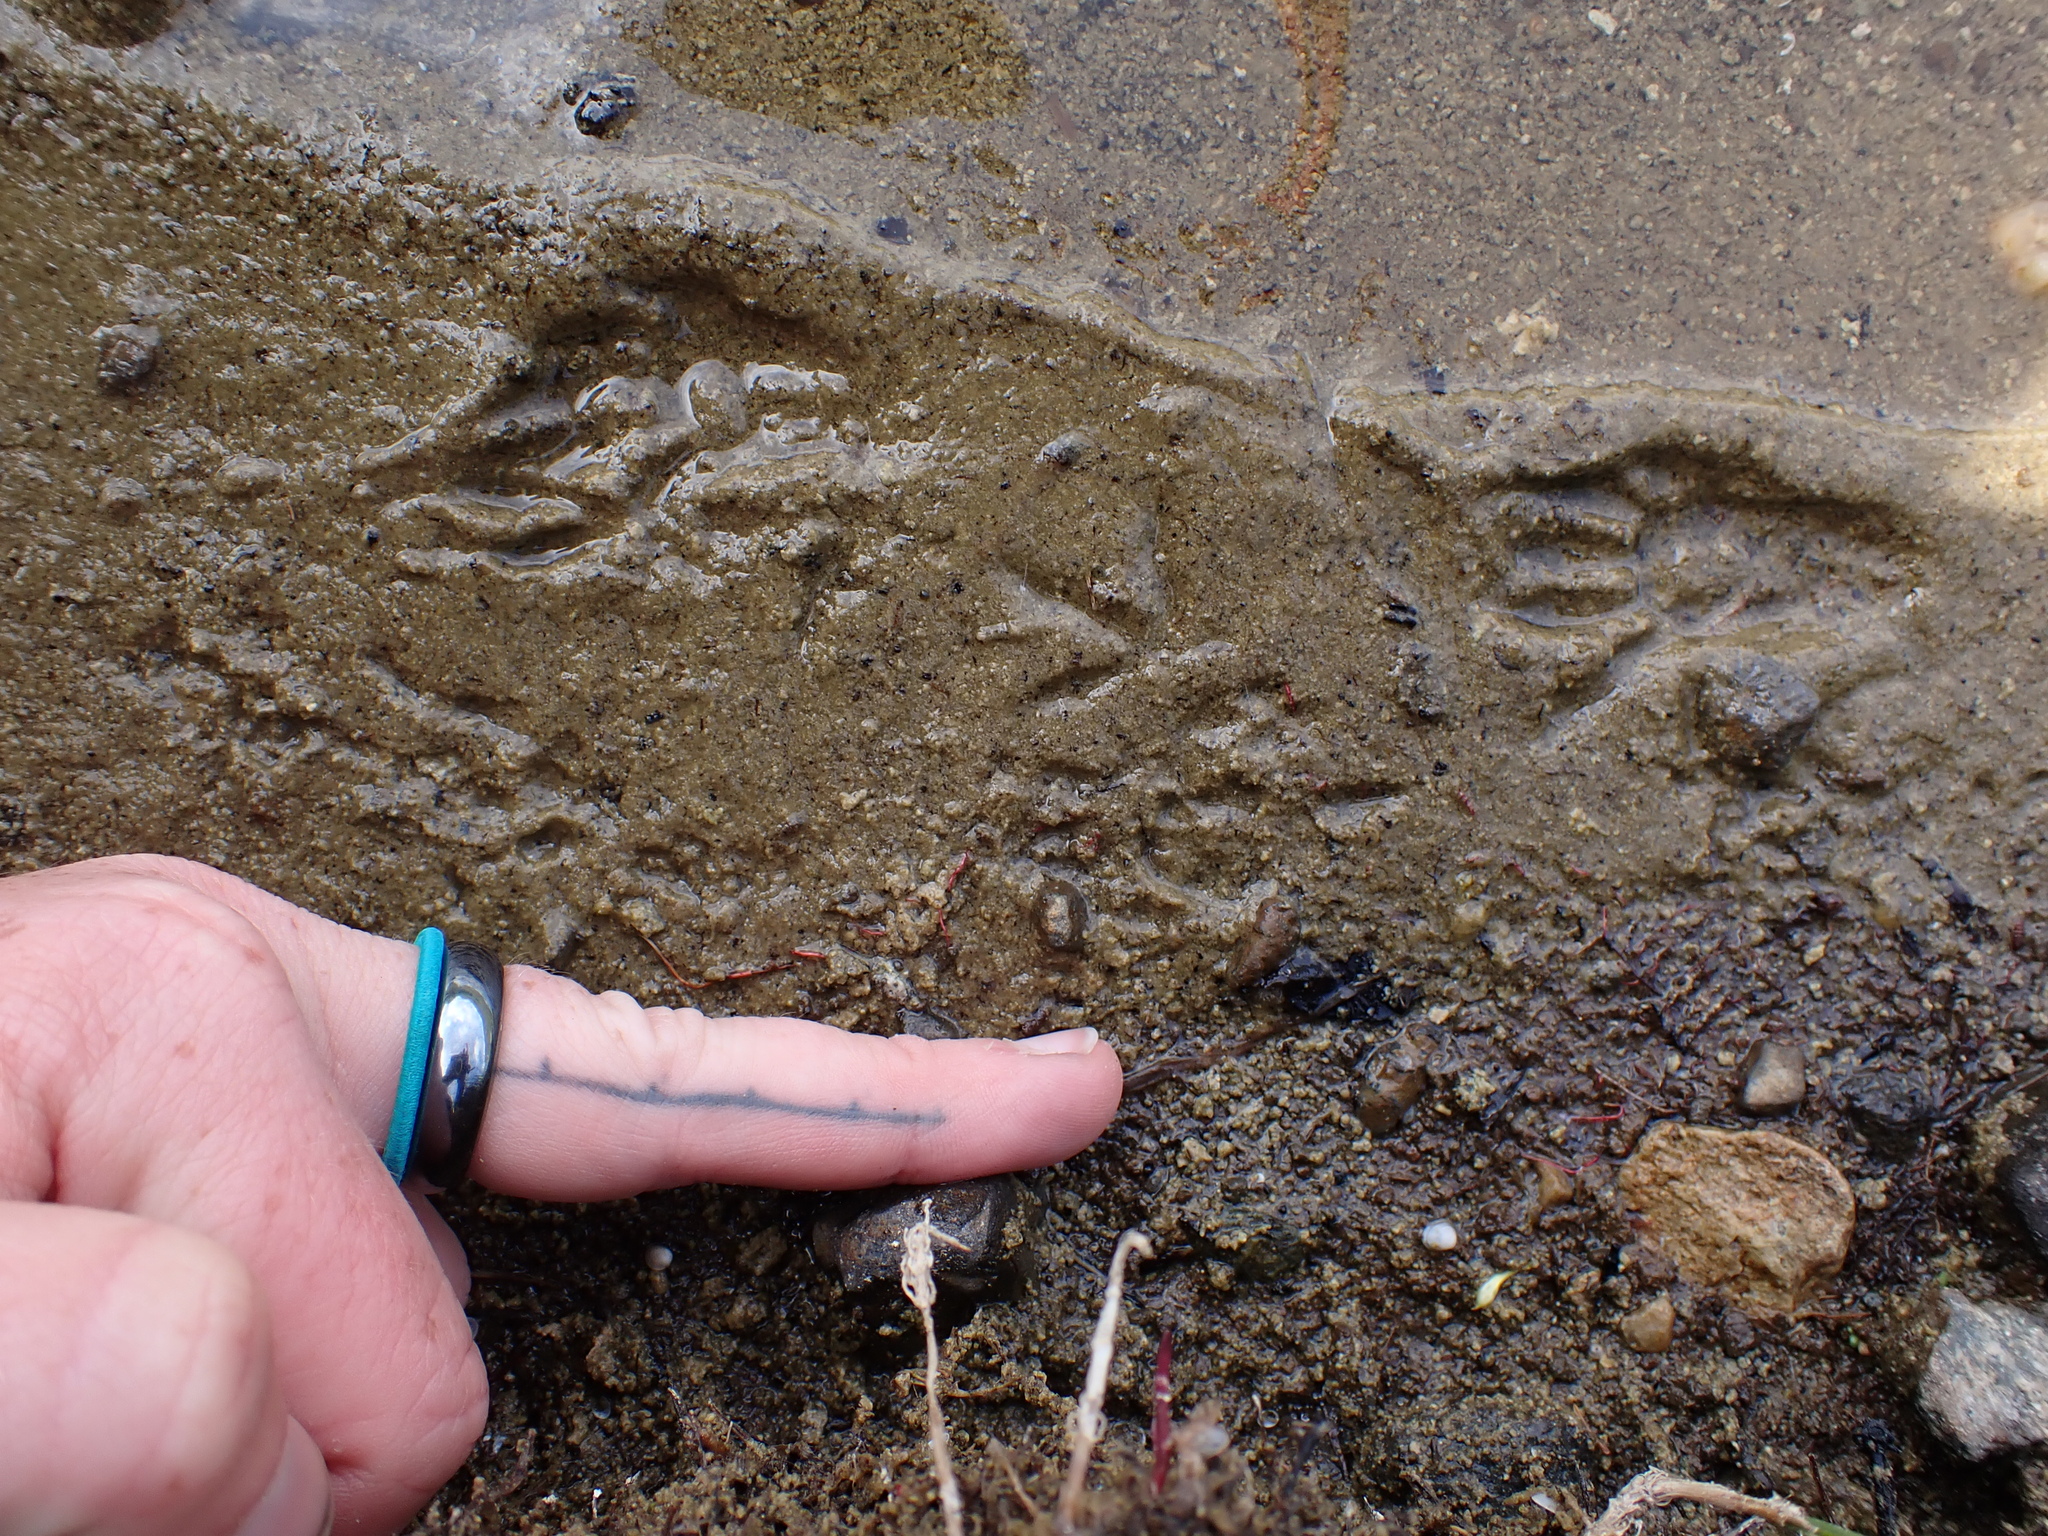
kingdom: Animalia
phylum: Chordata
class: Aves
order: Charadriiformes
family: Scolopacidae
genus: Actitis
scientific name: Actitis macularius
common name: Spotted sandpiper
